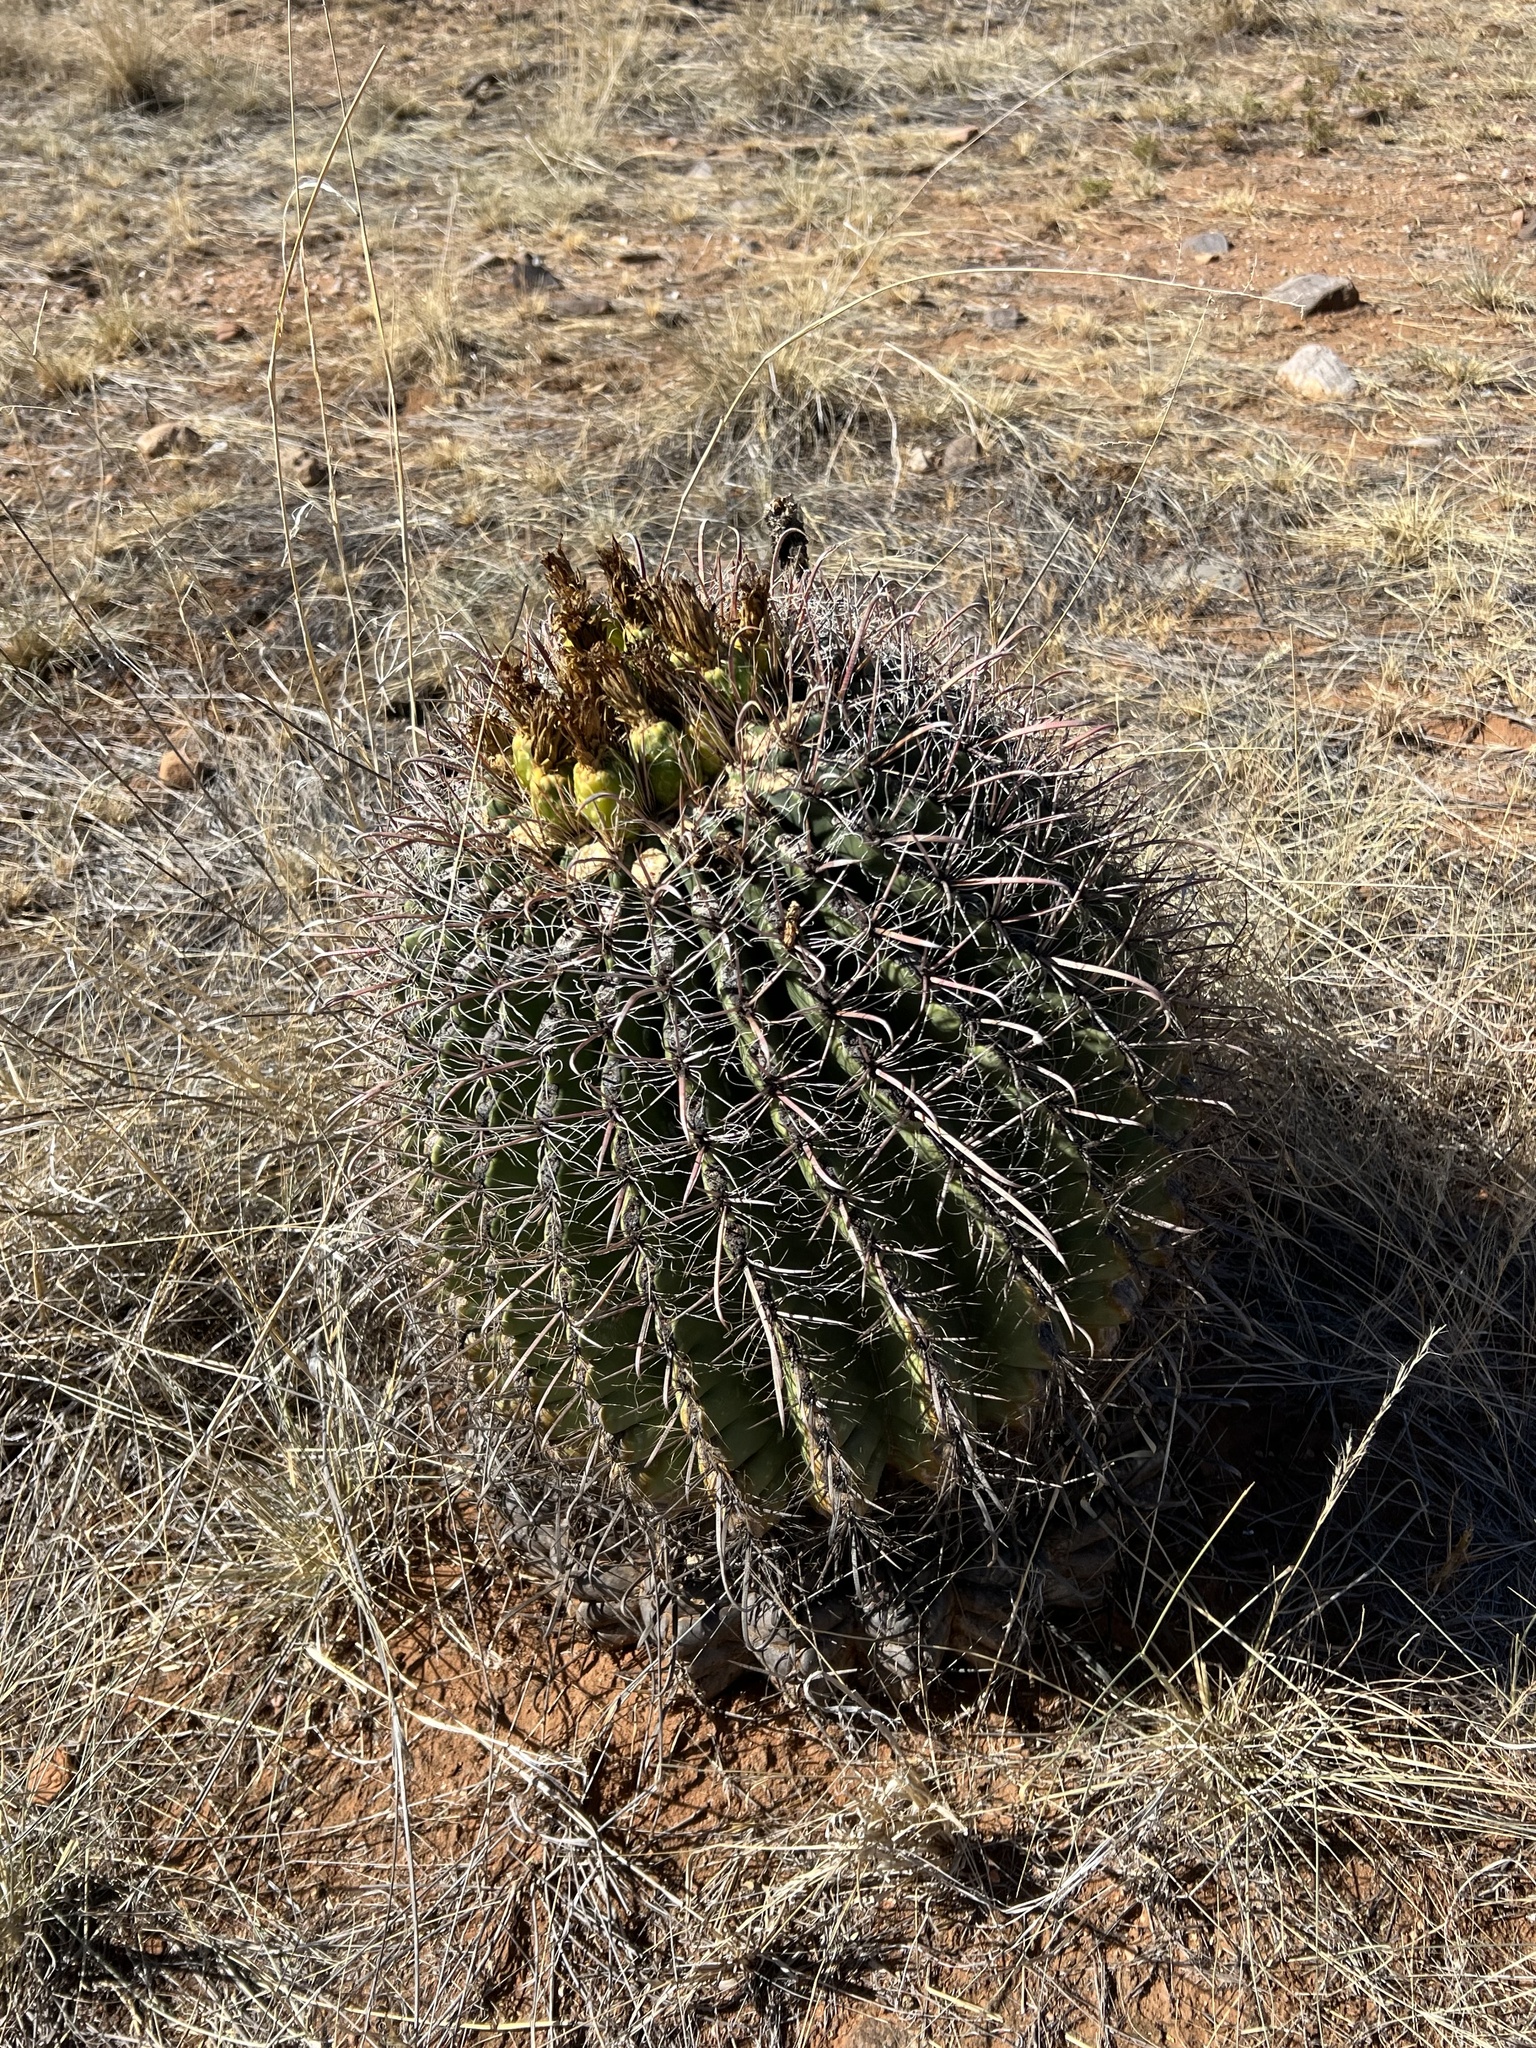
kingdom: Plantae
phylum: Tracheophyta
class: Magnoliopsida
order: Caryophyllales
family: Cactaceae
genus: Ferocactus
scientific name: Ferocactus wislizeni
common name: Candy barrel cactus
